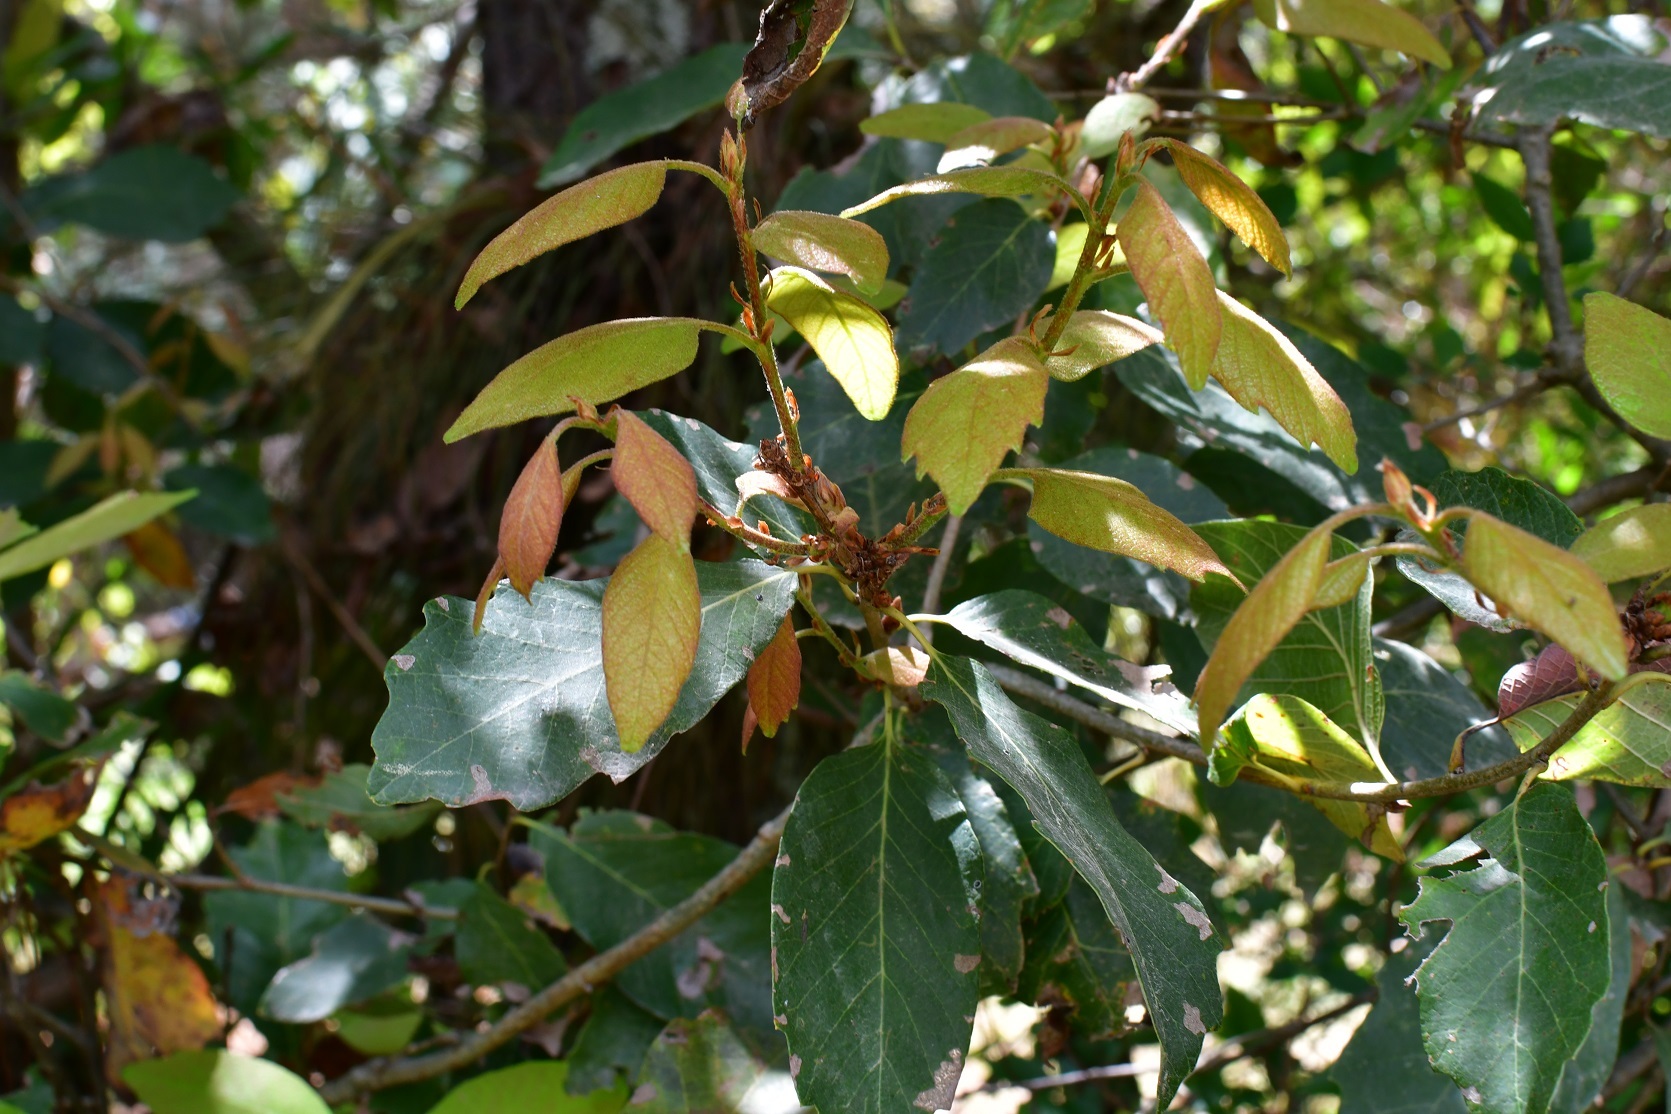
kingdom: Plantae
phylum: Tracheophyta
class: Magnoliopsida
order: Fagales
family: Fagaceae
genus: Quercus
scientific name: Quercus polymorpha
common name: Mexican white oak
